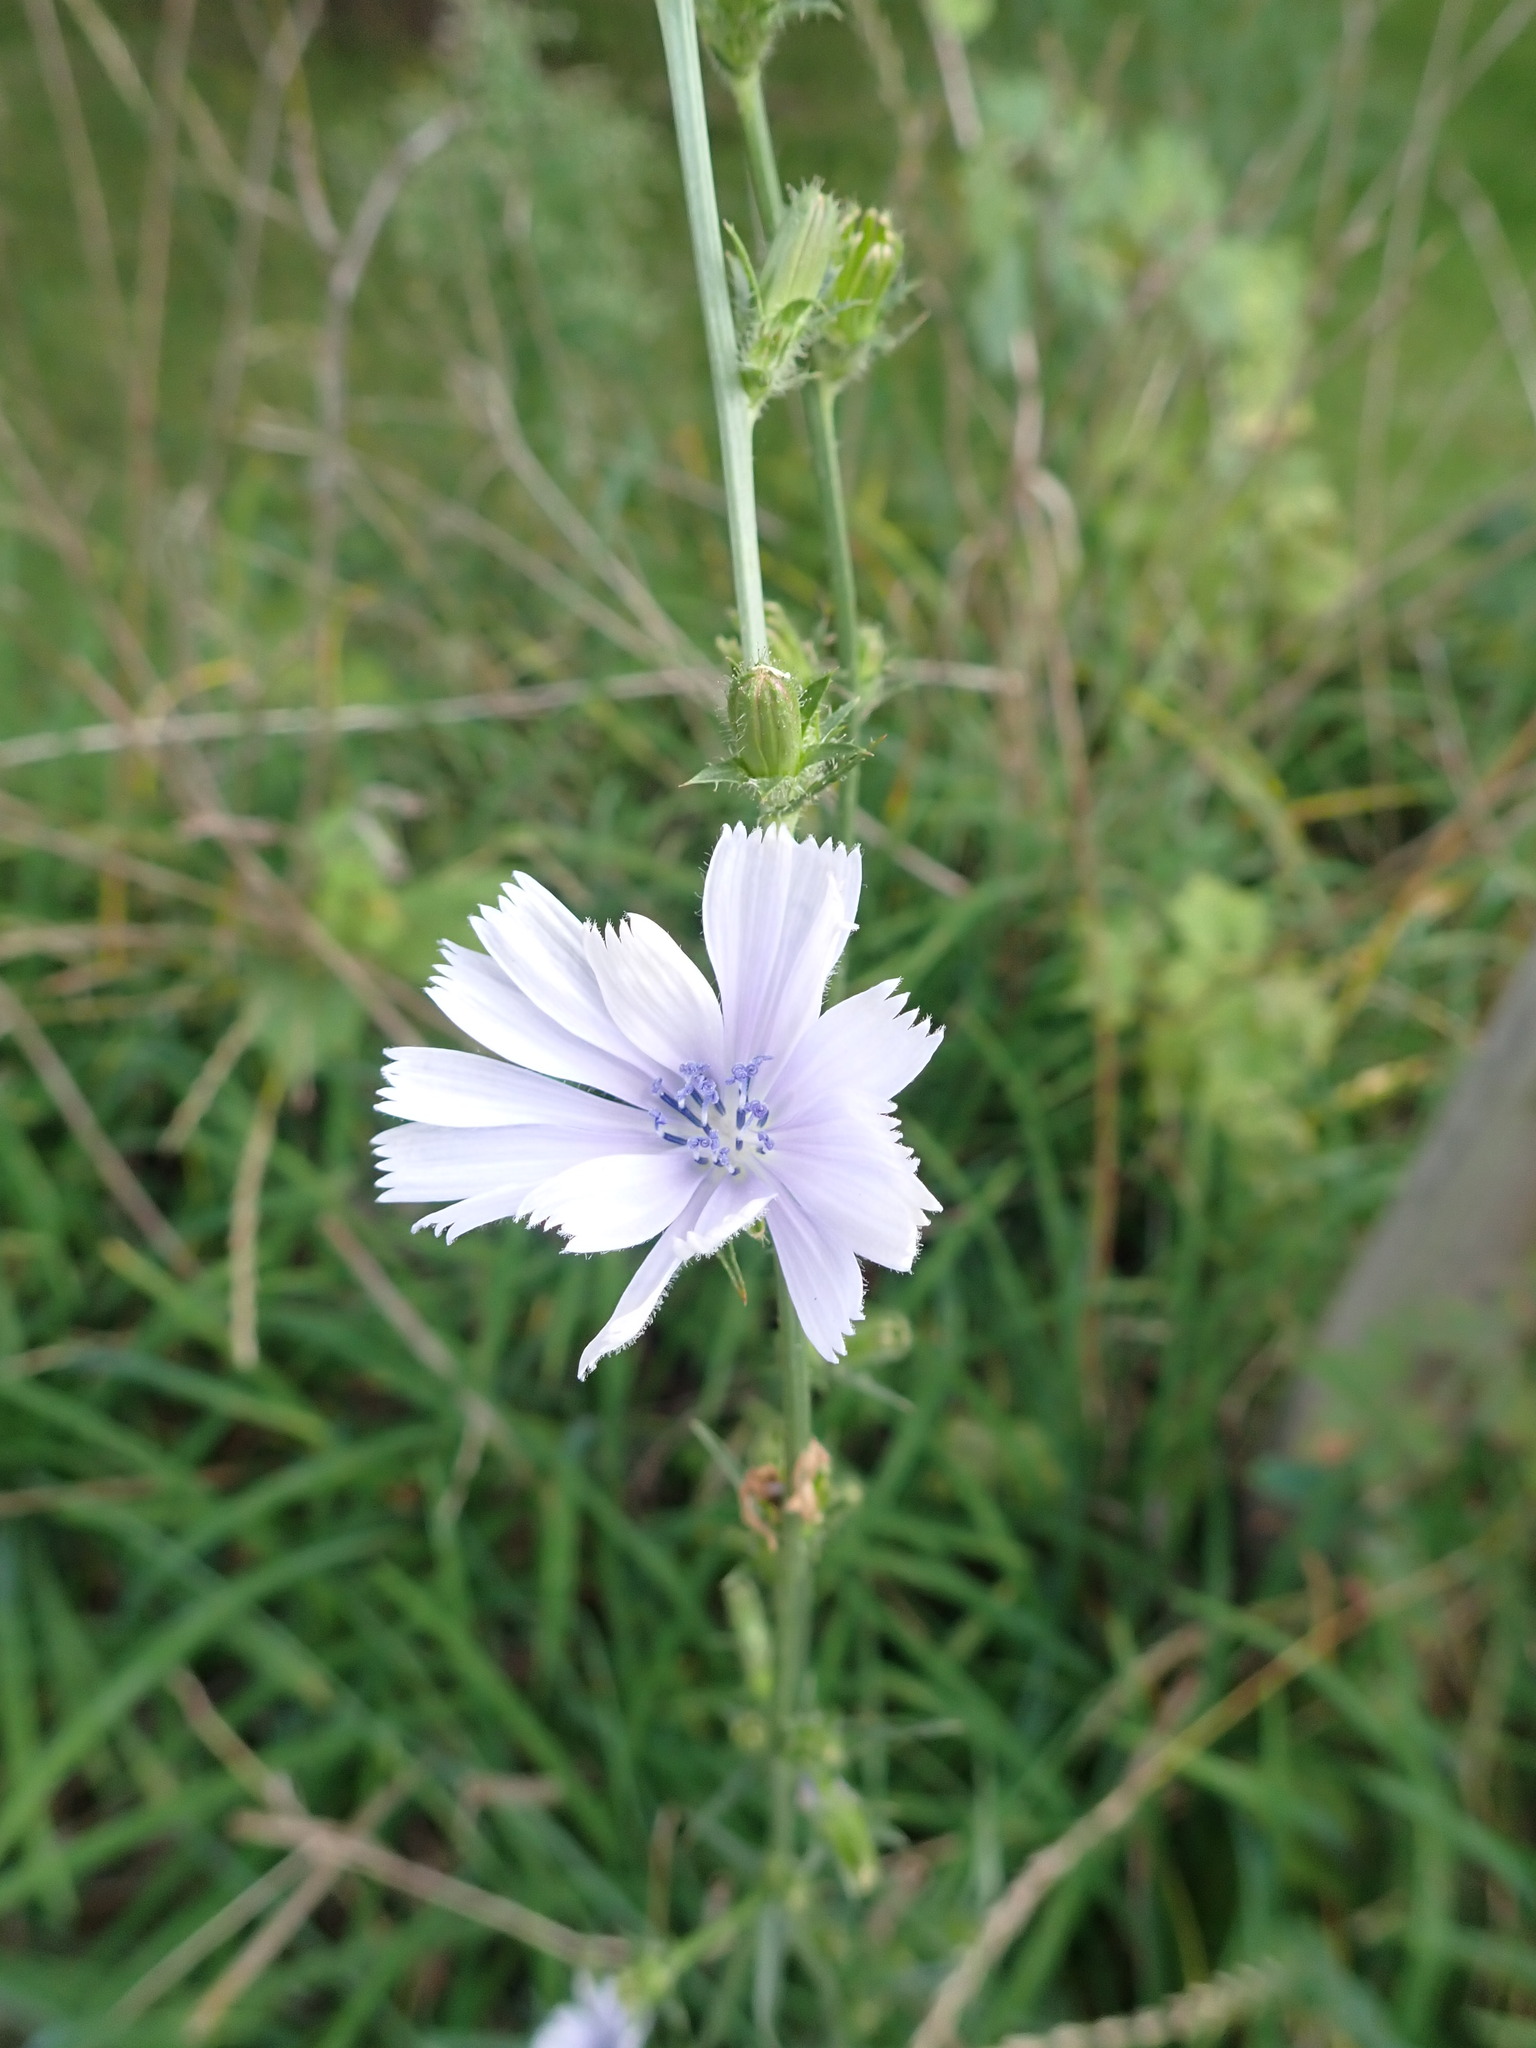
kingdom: Plantae
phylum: Tracheophyta
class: Magnoliopsida
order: Asterales
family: Asteraceae
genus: Cichorium
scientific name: Cichorium intybus
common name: Chicory
